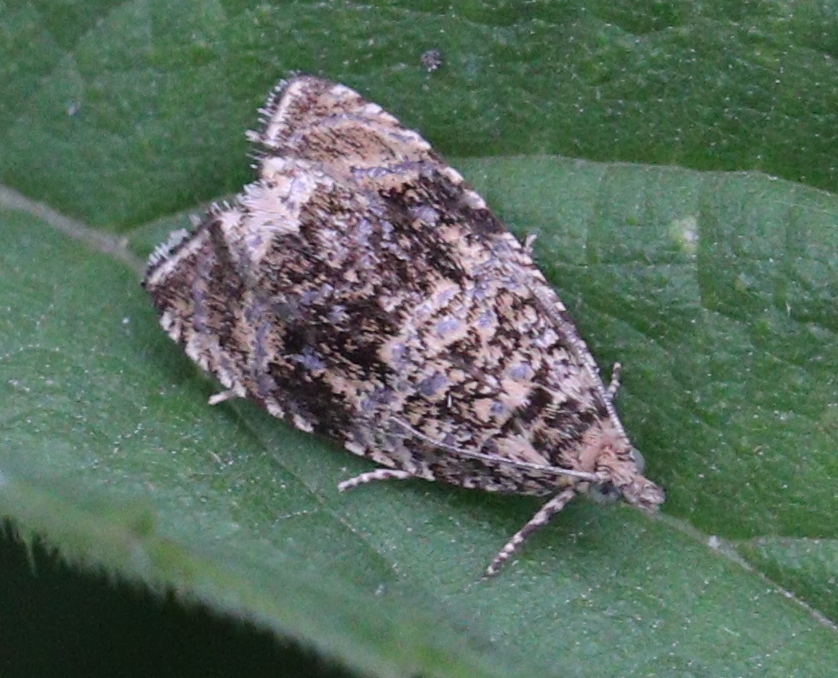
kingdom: Animalia
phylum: Arthropoda
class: Insecta
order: Lepidoptera
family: Tortricidae
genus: Syricoris
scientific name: Syricoris lacunana
